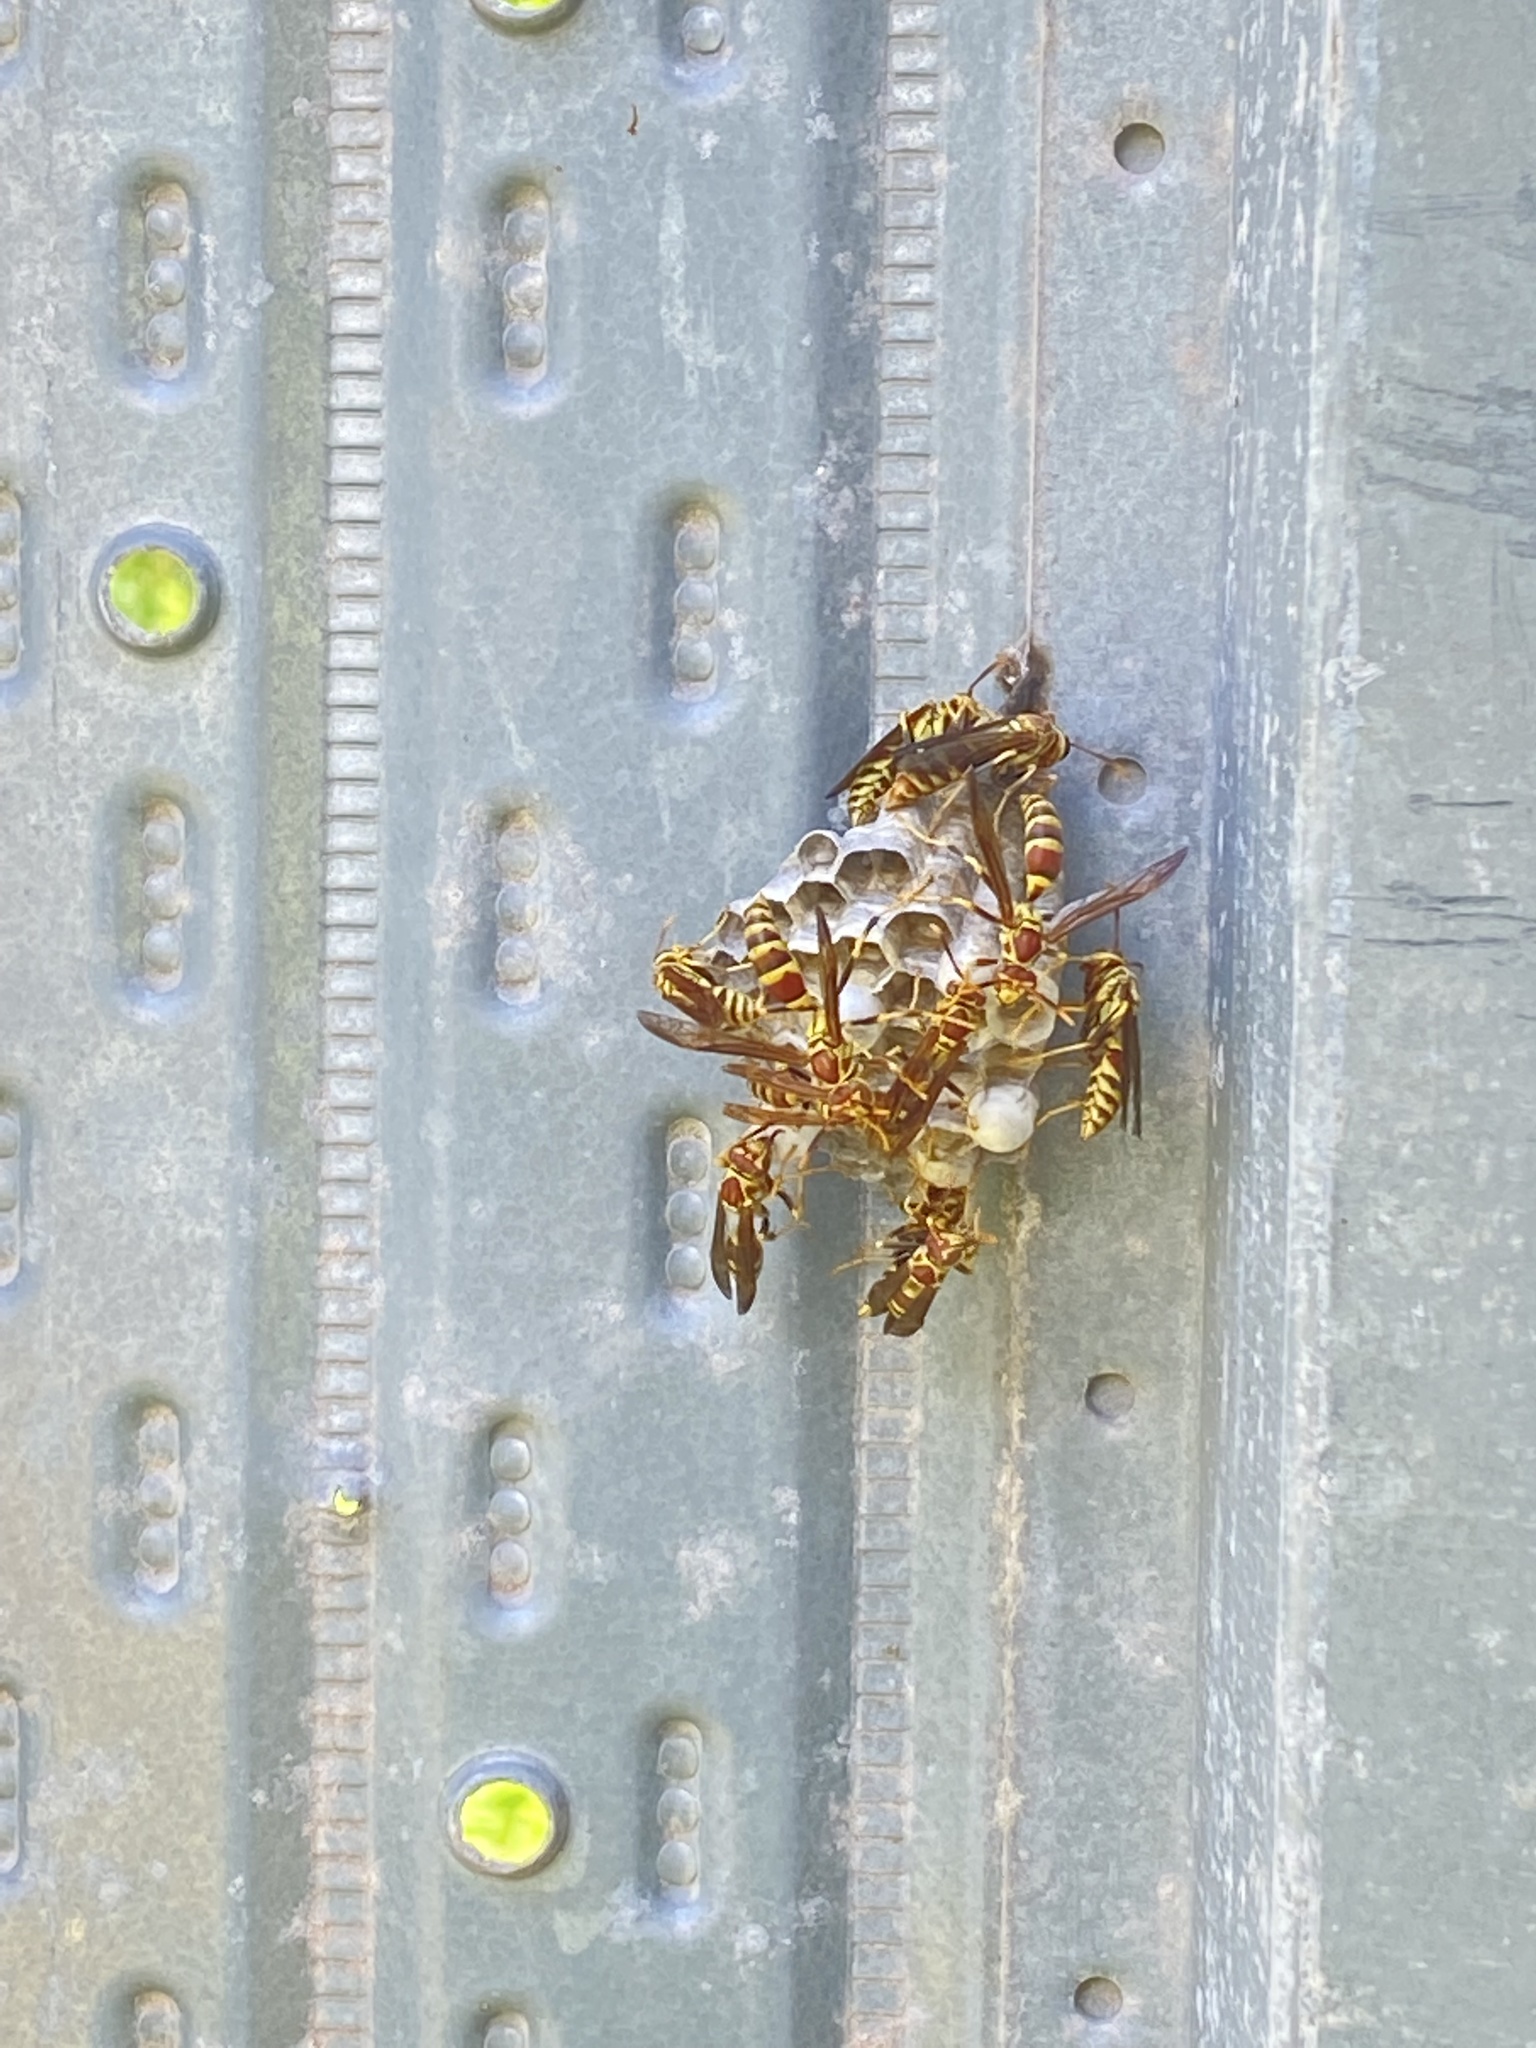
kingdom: Animalia
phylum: Arthropoda
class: Insecta
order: Hymenoptera
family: Eumenidae
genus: Polistes
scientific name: Polistes exclamans
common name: Paper wasp
